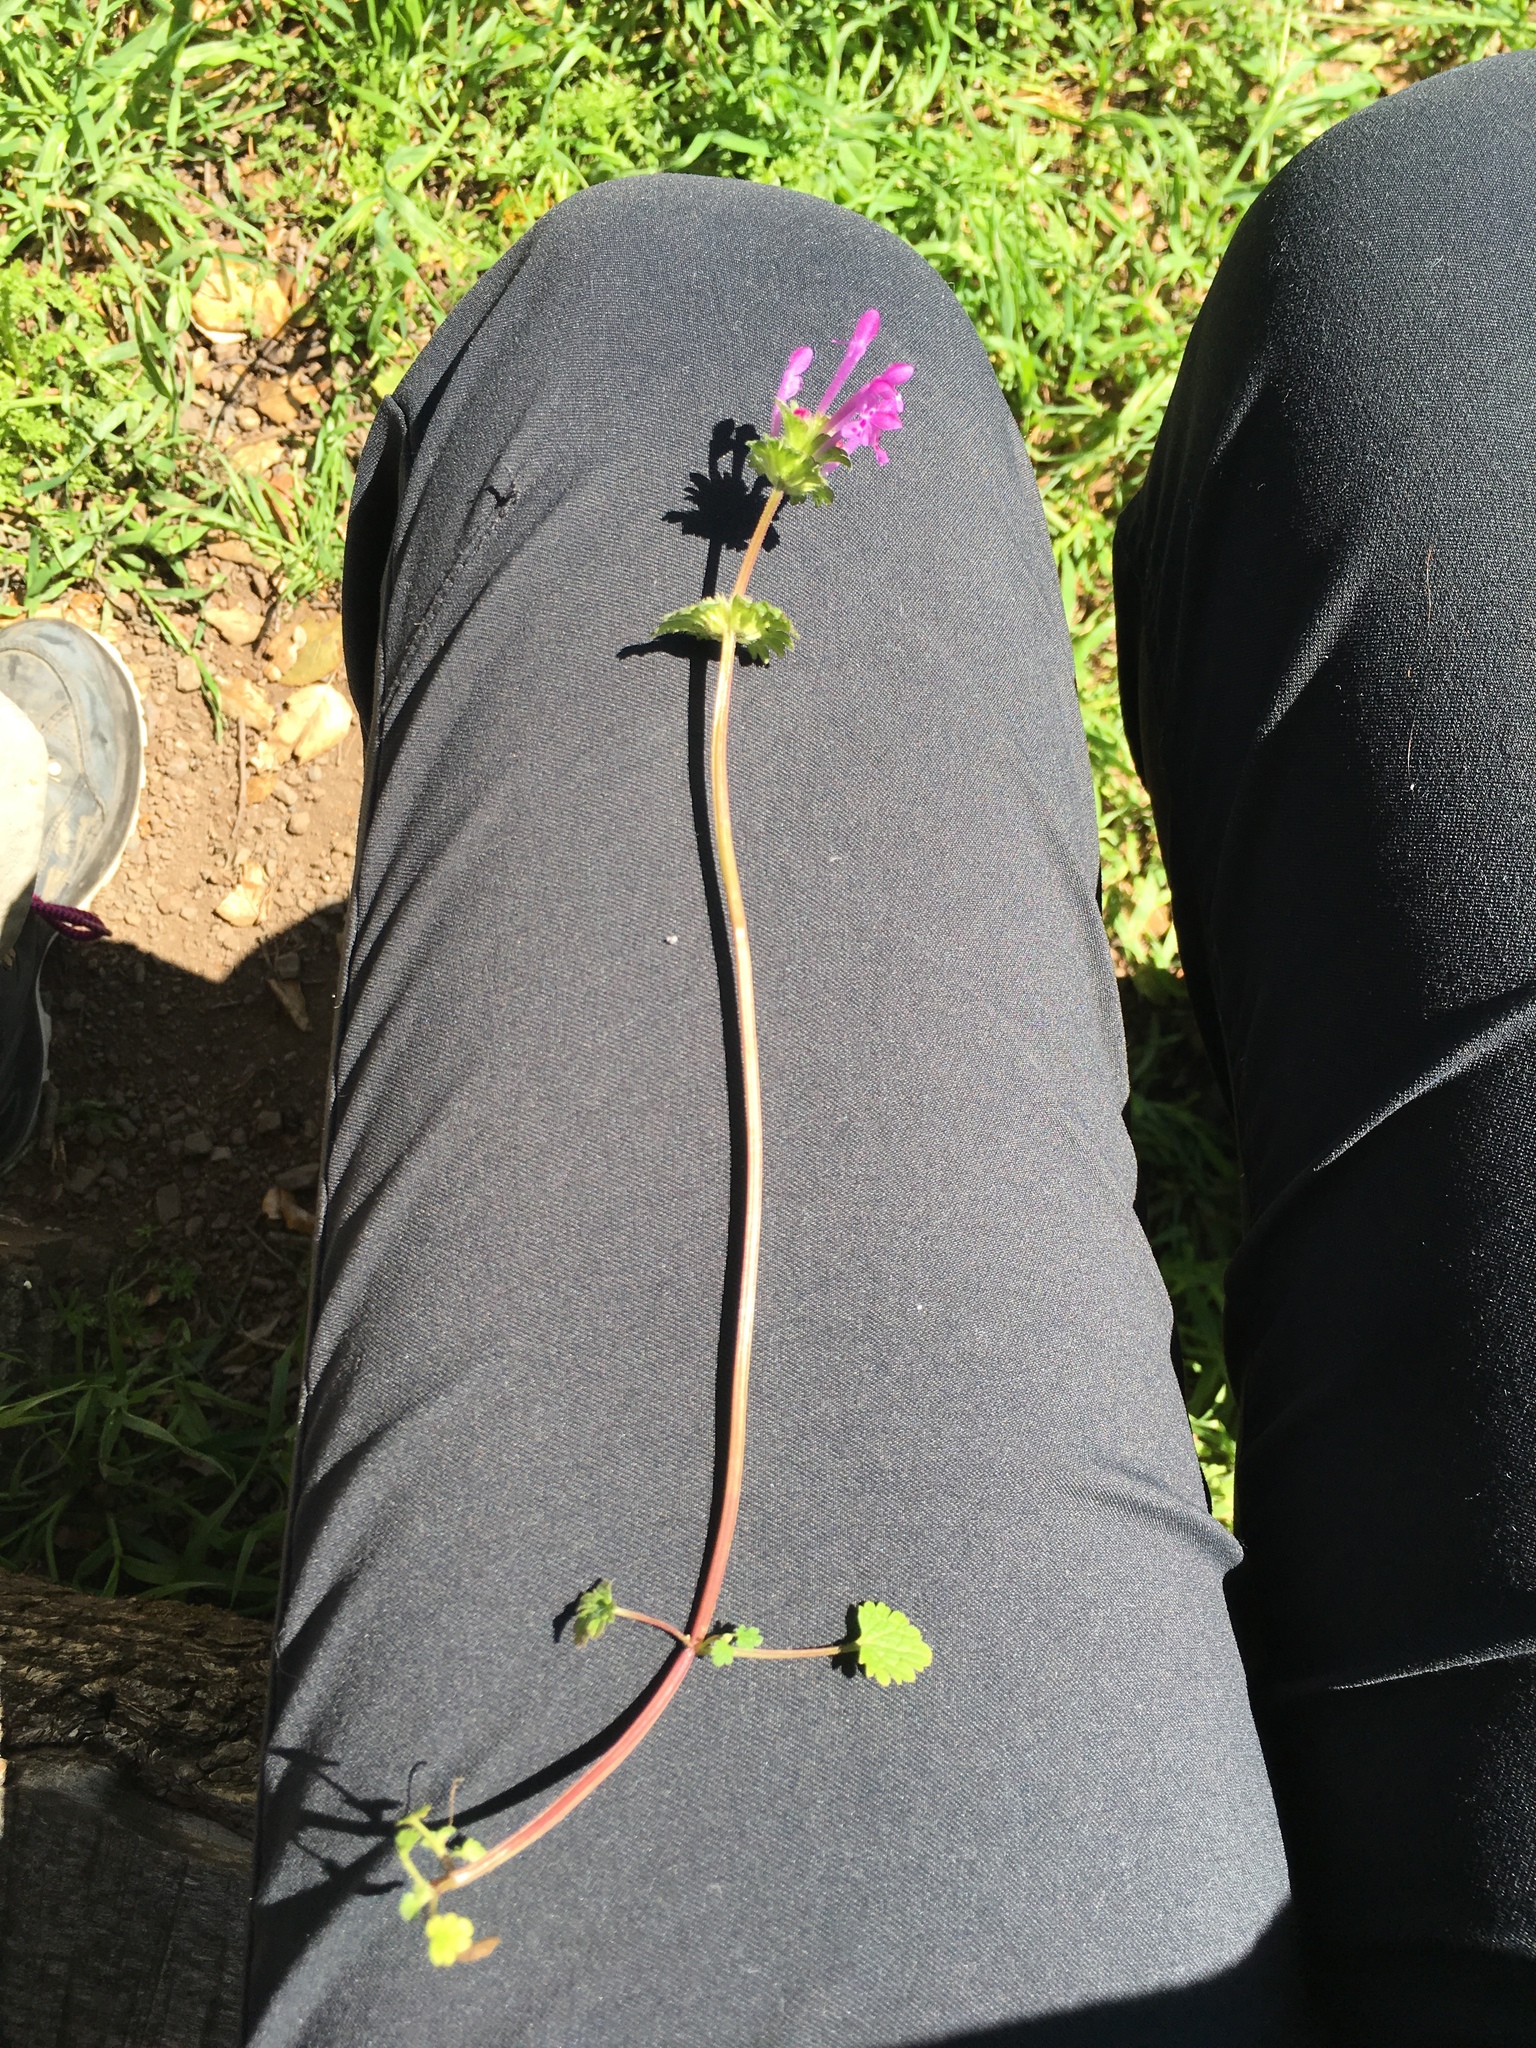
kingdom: Plantae
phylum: Tracheophyta
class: Magnoliopsida
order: Lamiales
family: Lamiaceae
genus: Lamium
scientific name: Lamium amplexicaule
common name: Henbit dead-nettle
